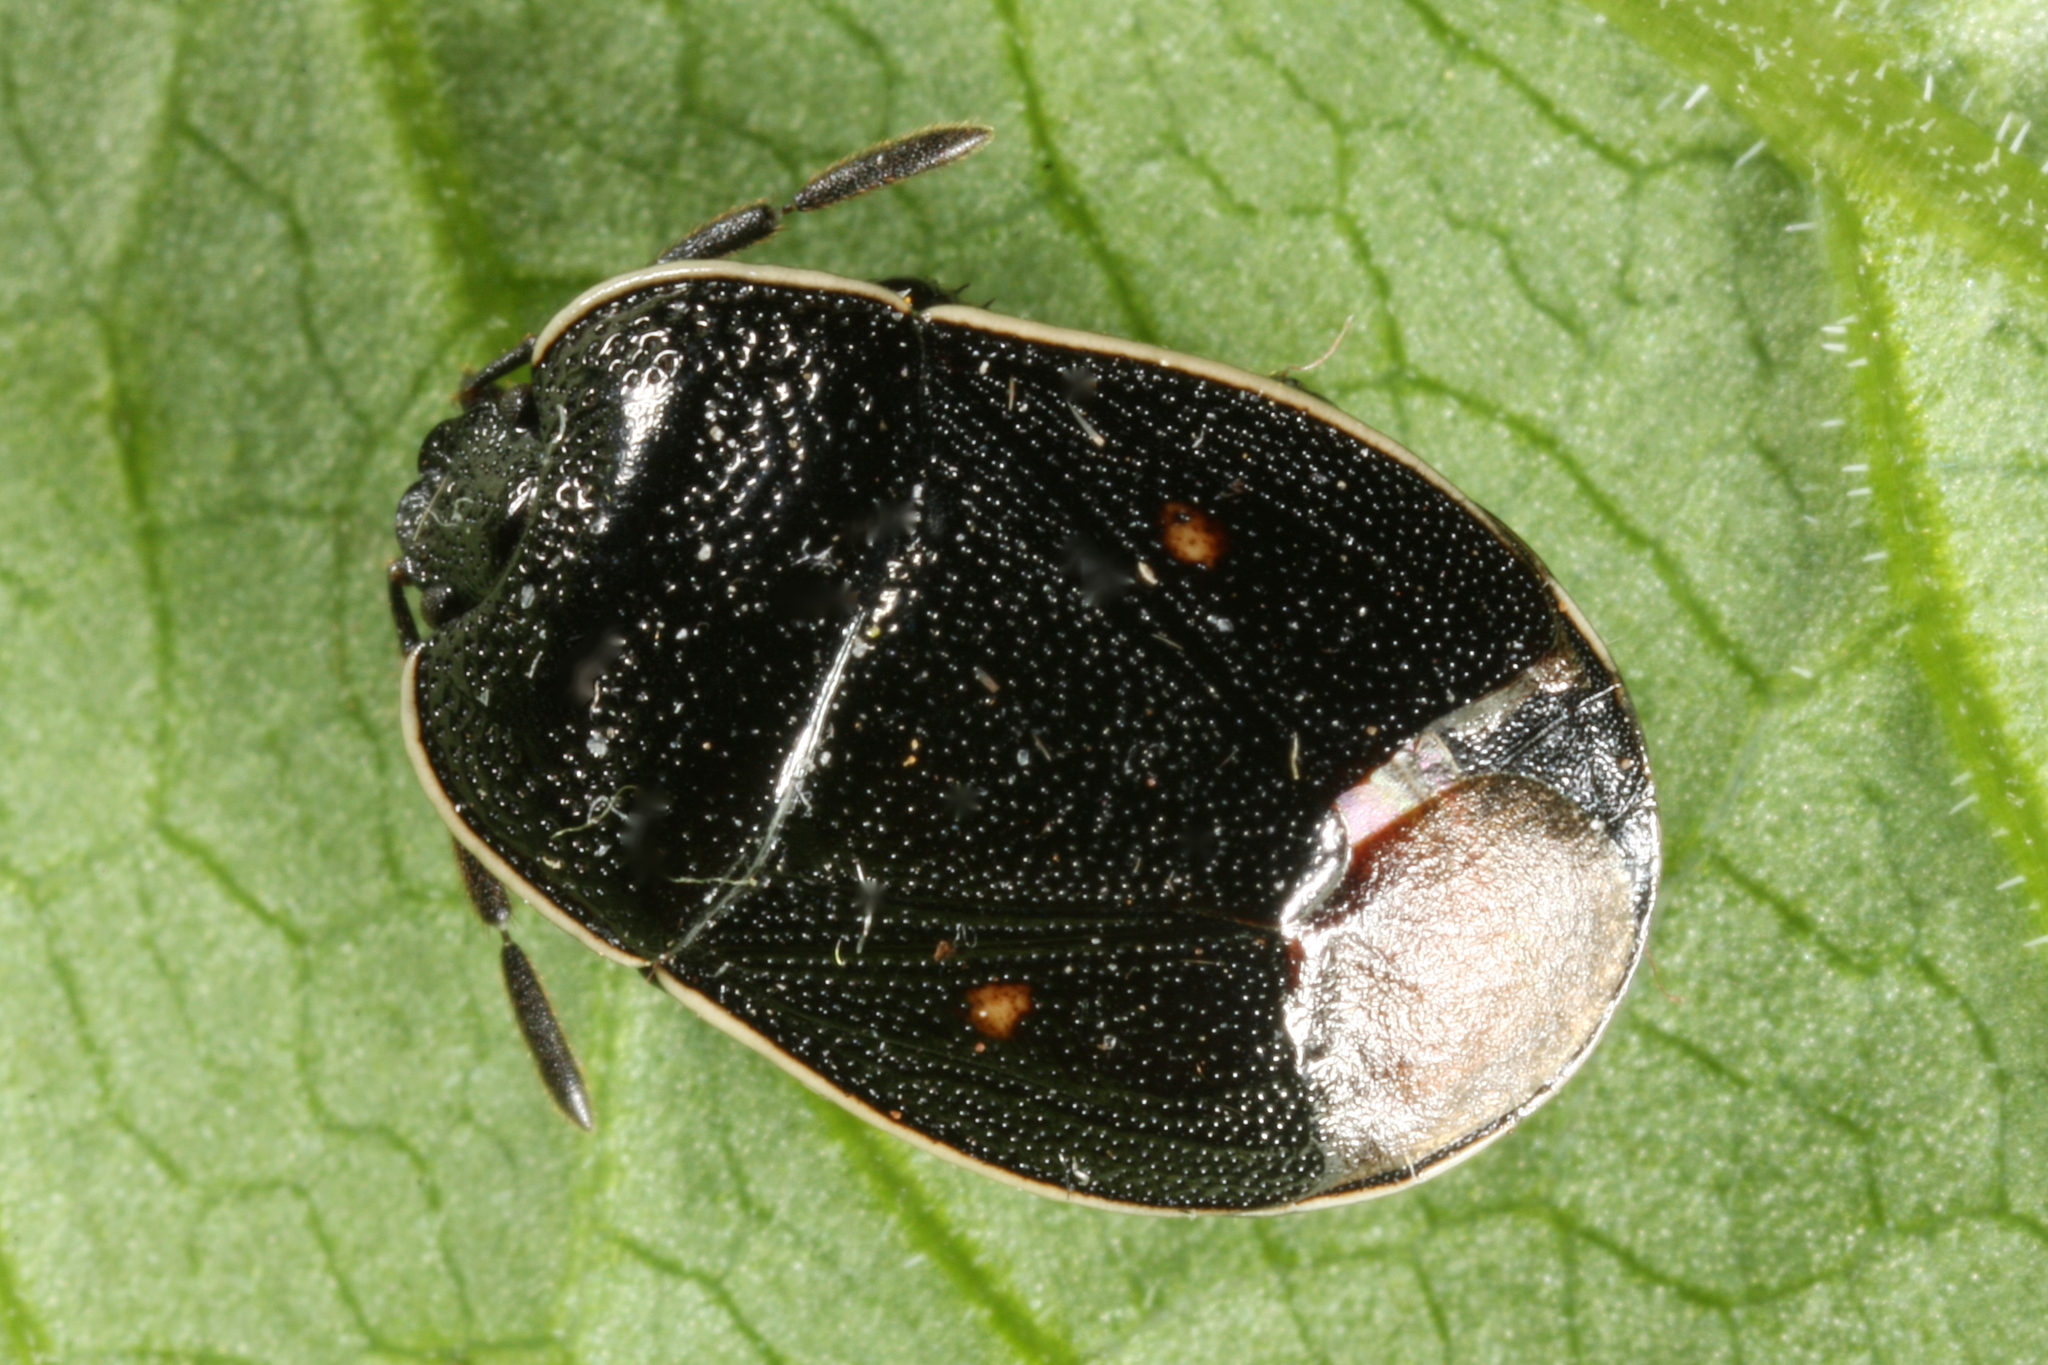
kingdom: Animalia
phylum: Arthropoda
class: Insecta
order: Hemiptera
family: Cydnidae
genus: Adomerus
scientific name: Adomerus biguttatus
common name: Cow wheat shieldbug
